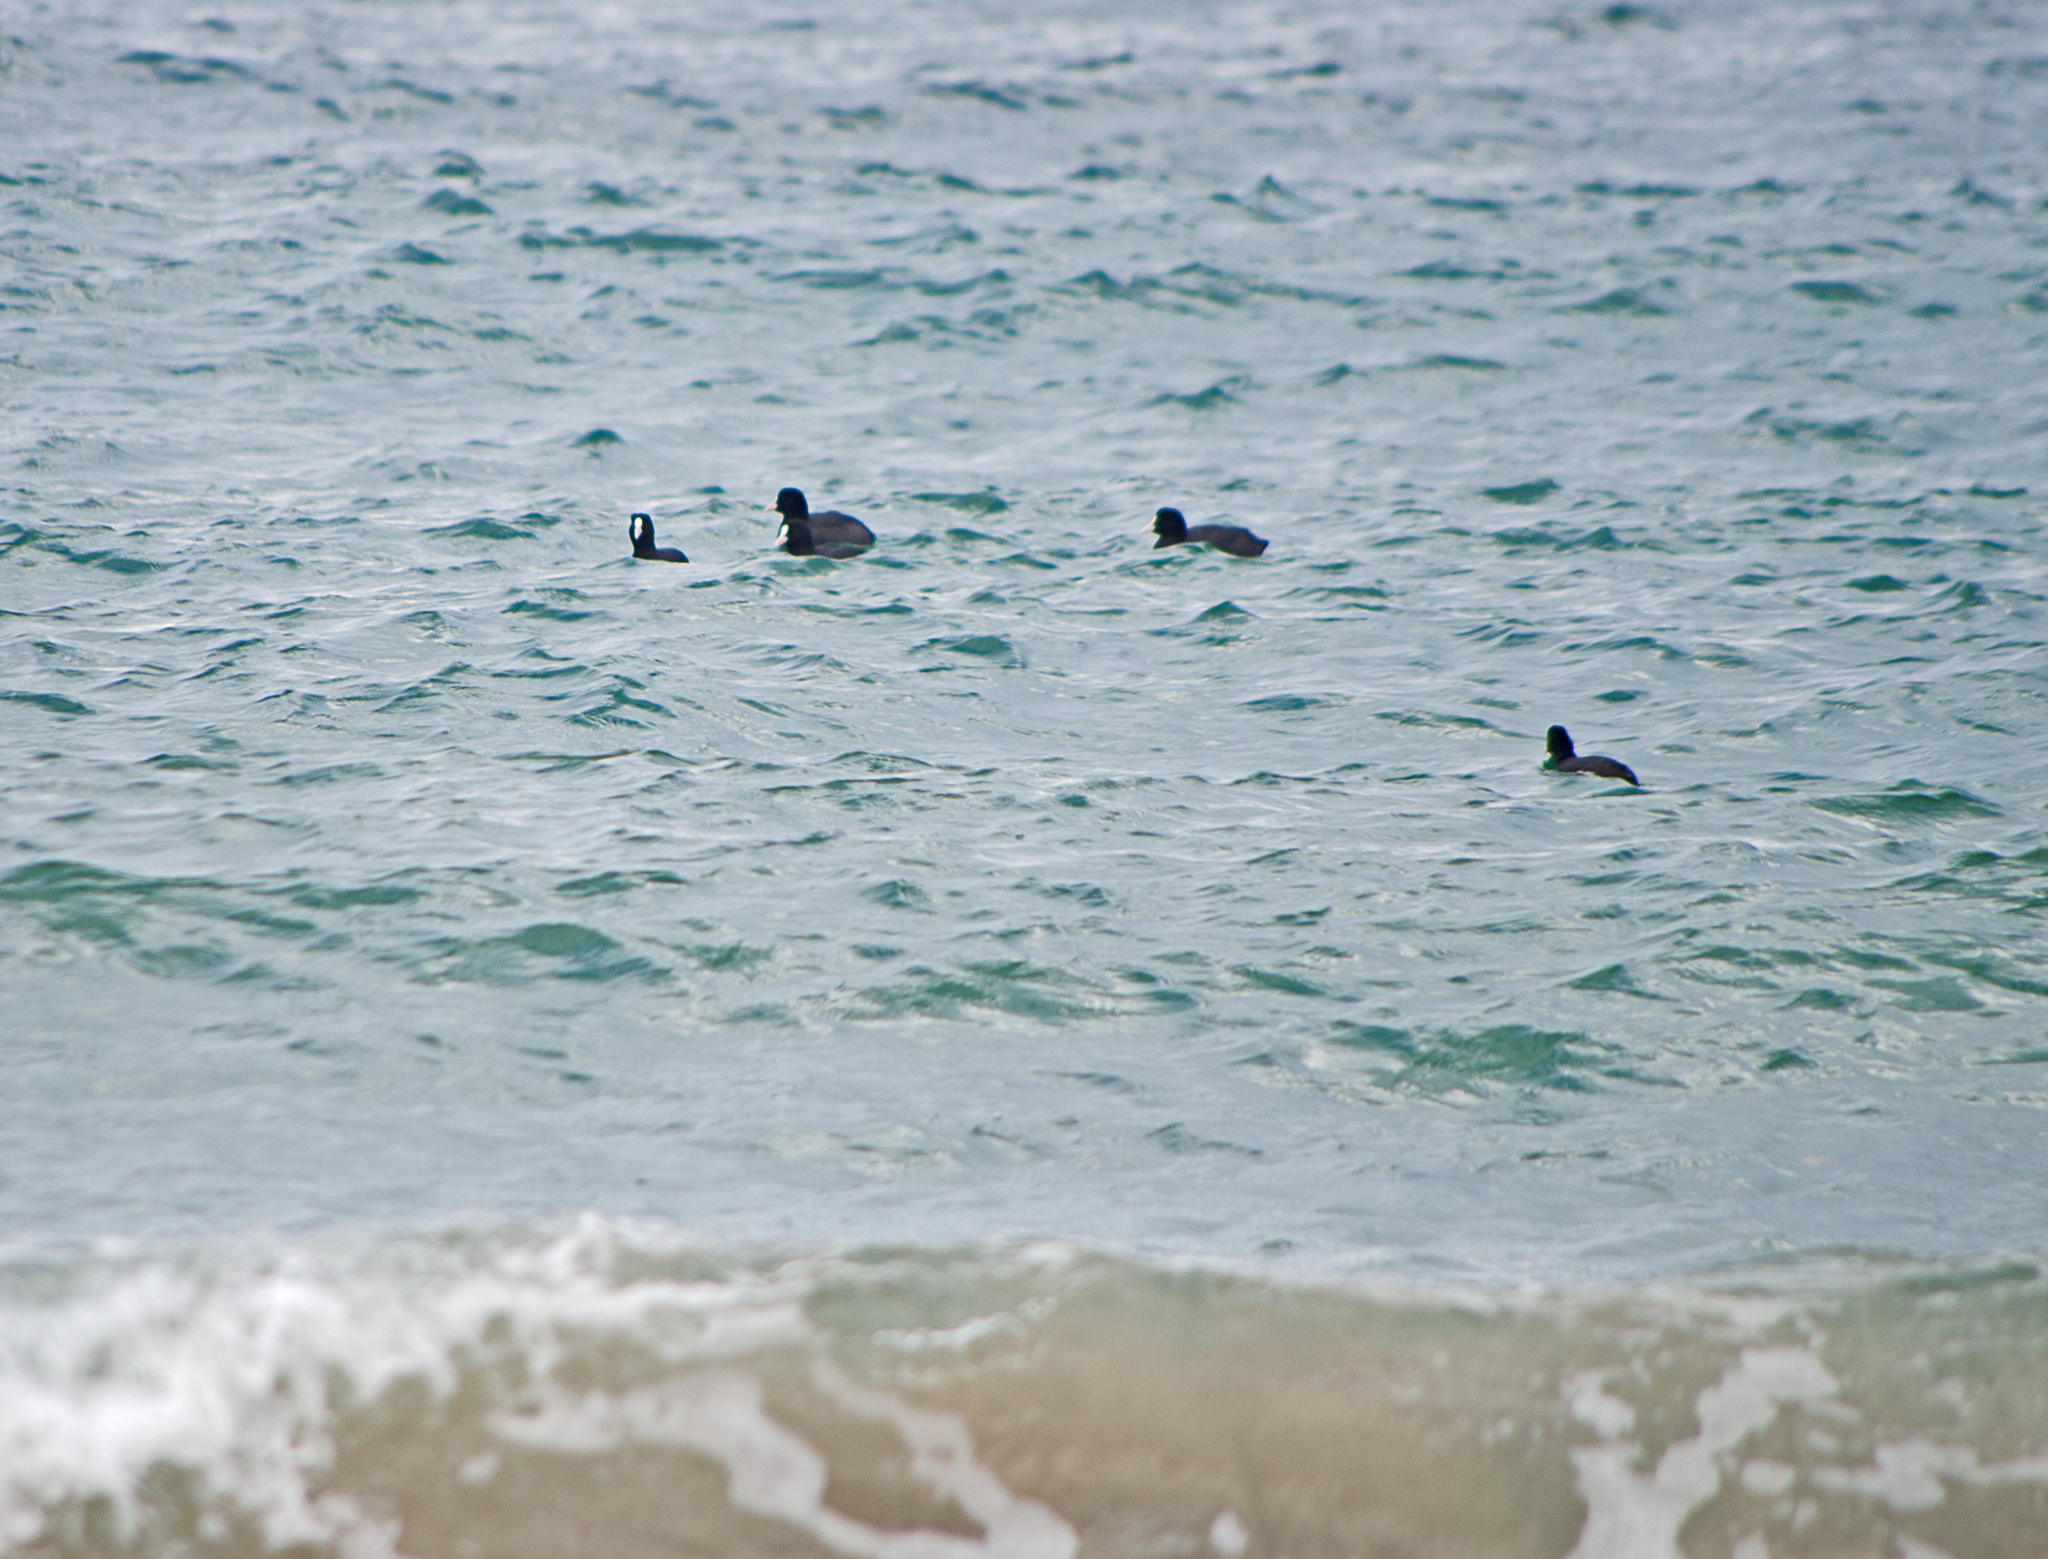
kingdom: Animalia
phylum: Chordata
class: Aves
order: Gruiformes
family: Rallidae
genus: Fulica
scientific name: Fulica atra
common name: Eurasian coot
